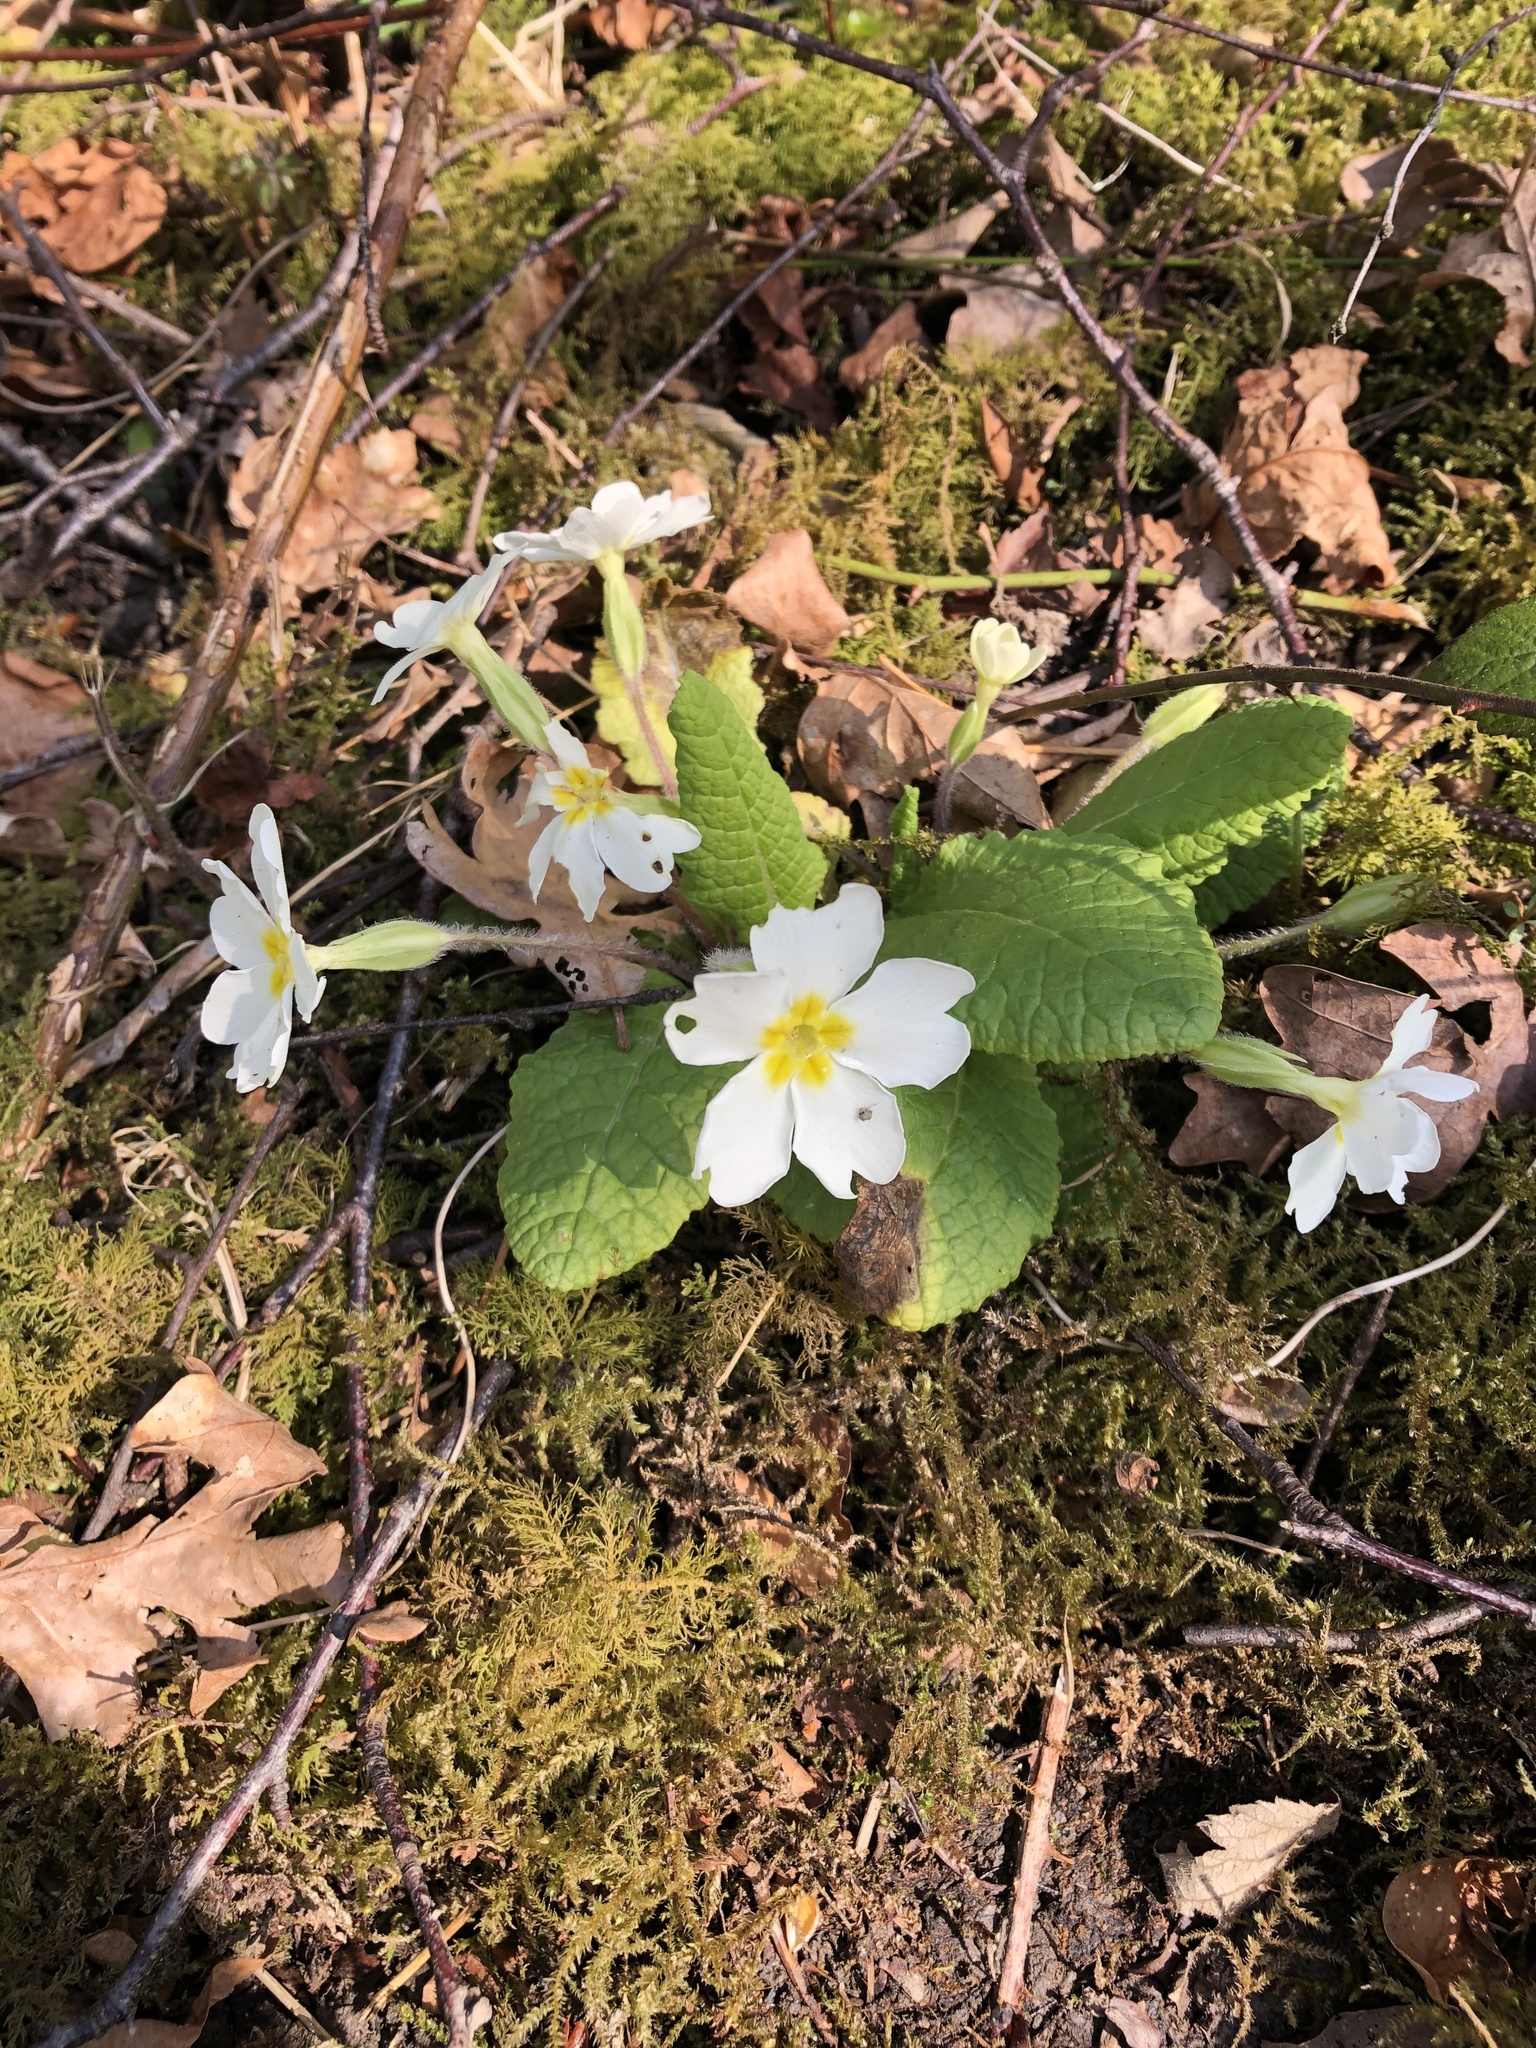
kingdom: Plantae
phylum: Tracheophyta
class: Magnoliopsida
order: Ericales
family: Primulaceae
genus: Primula
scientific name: Primula vulgaris
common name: Primrose
